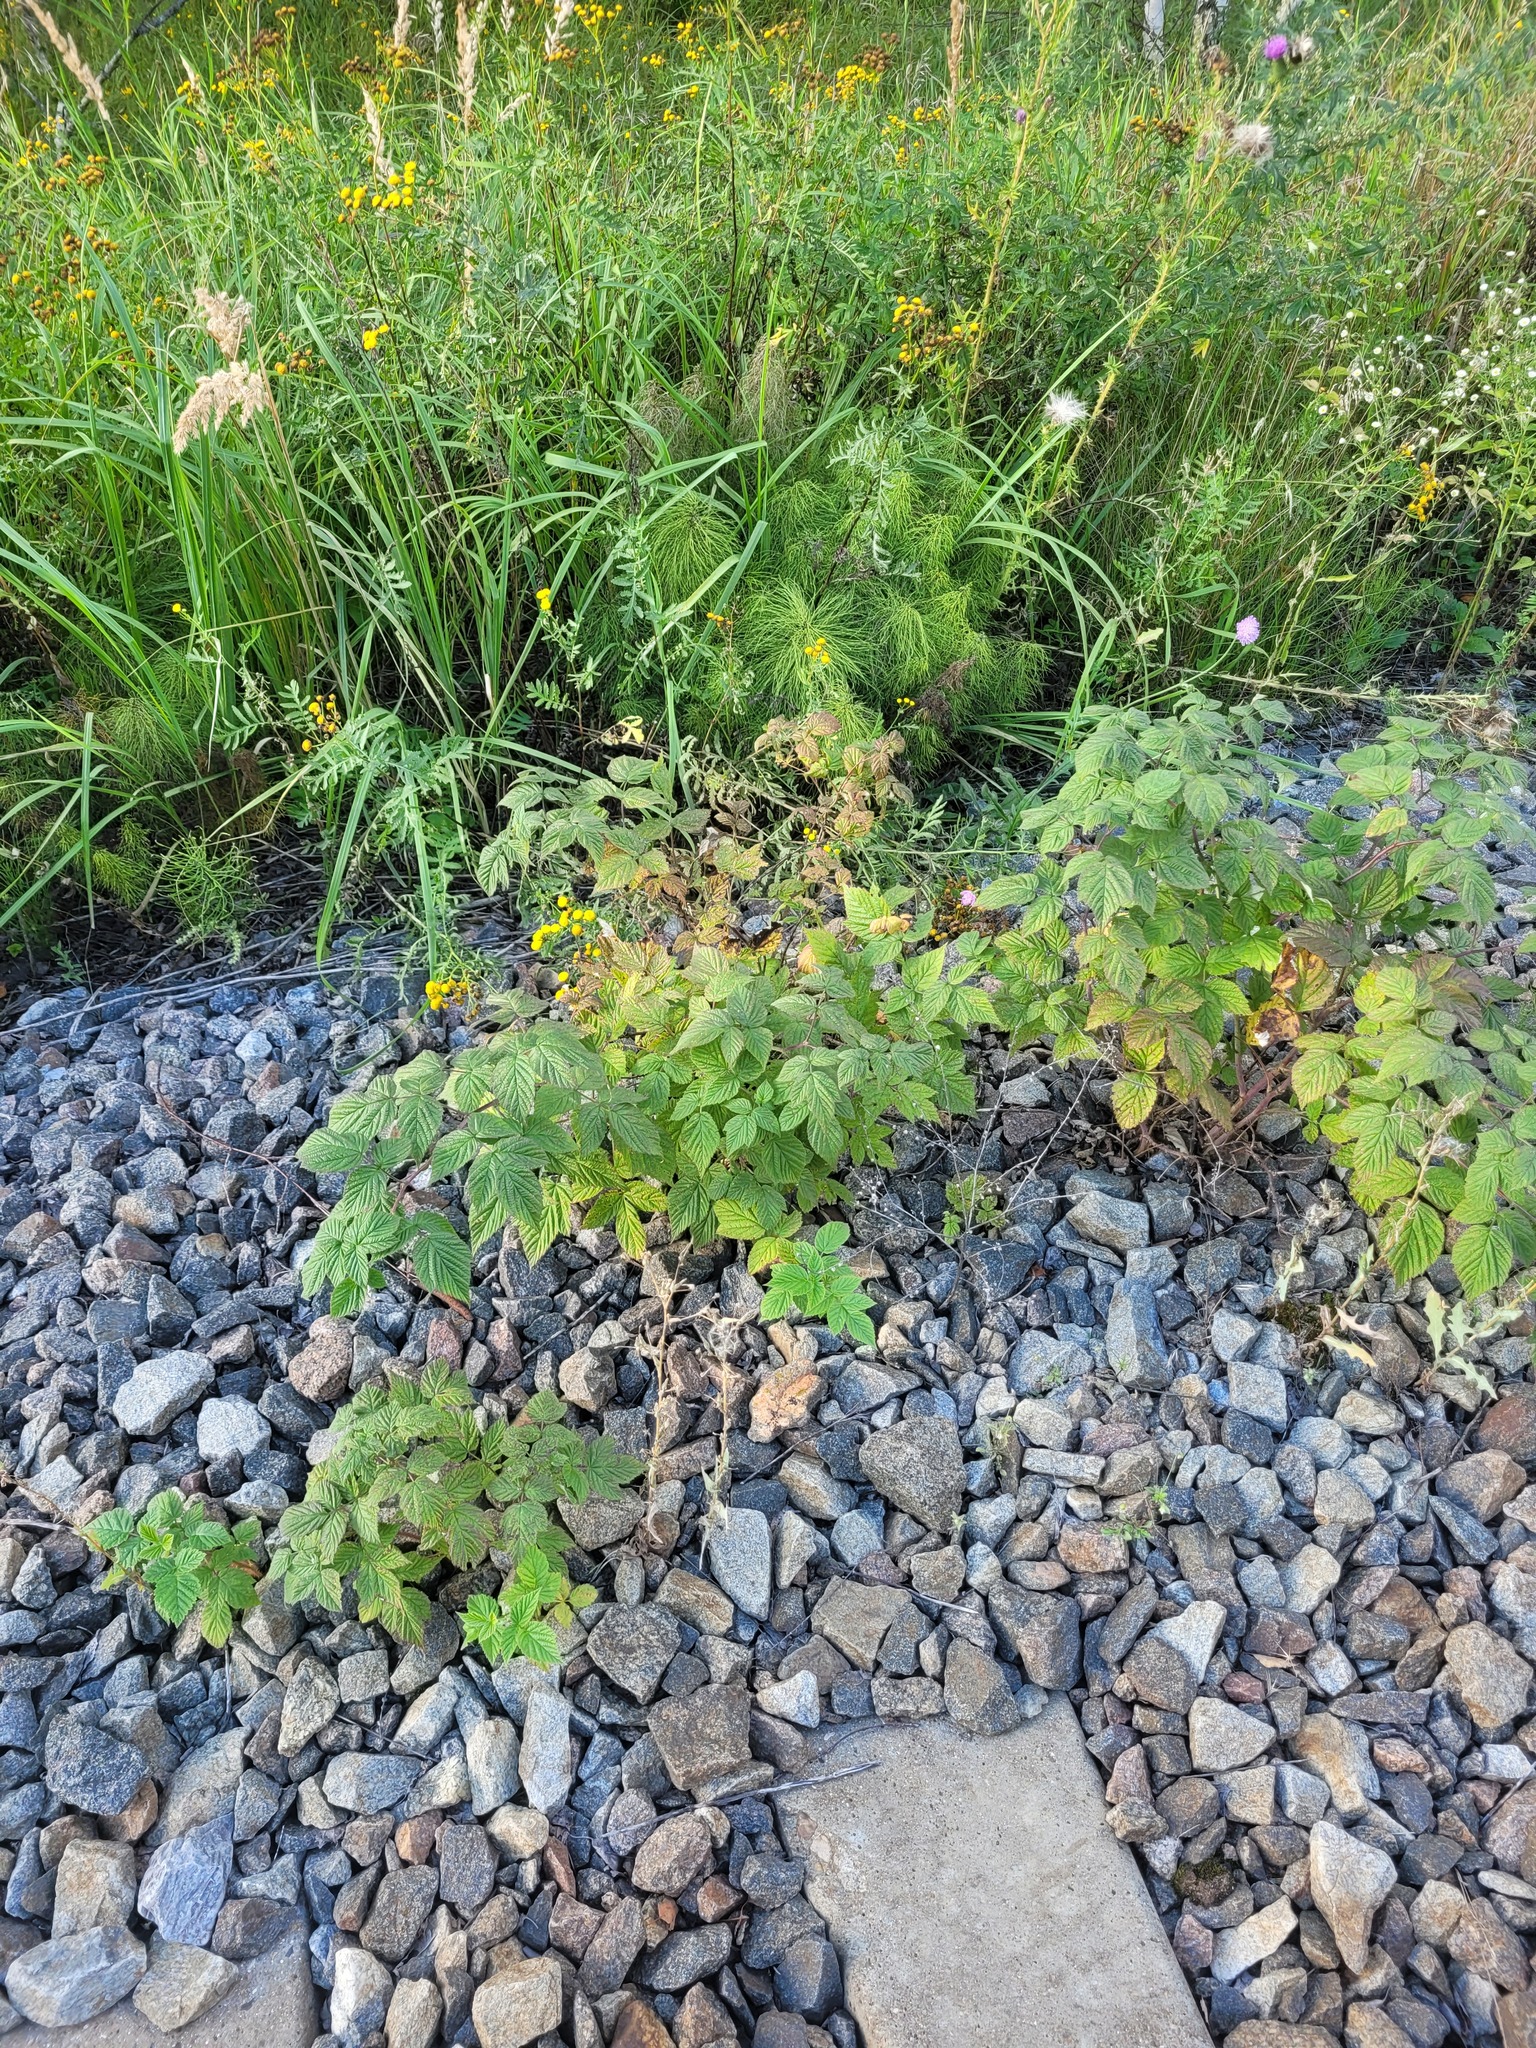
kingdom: Plantae
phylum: Tracheophyta
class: Magnoliopsida
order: Rosales
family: Rosaceae
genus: Rubus
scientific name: Rubus idaeus
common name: Raspberry
